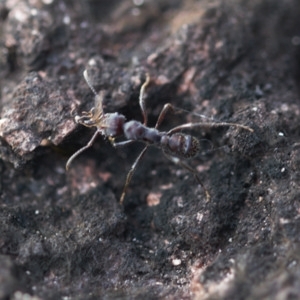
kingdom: Animalia
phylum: Arthropoda
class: Insecta
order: Hymenoptera
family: Formicidae
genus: Ectatomma
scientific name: Ectatomma brunneum
